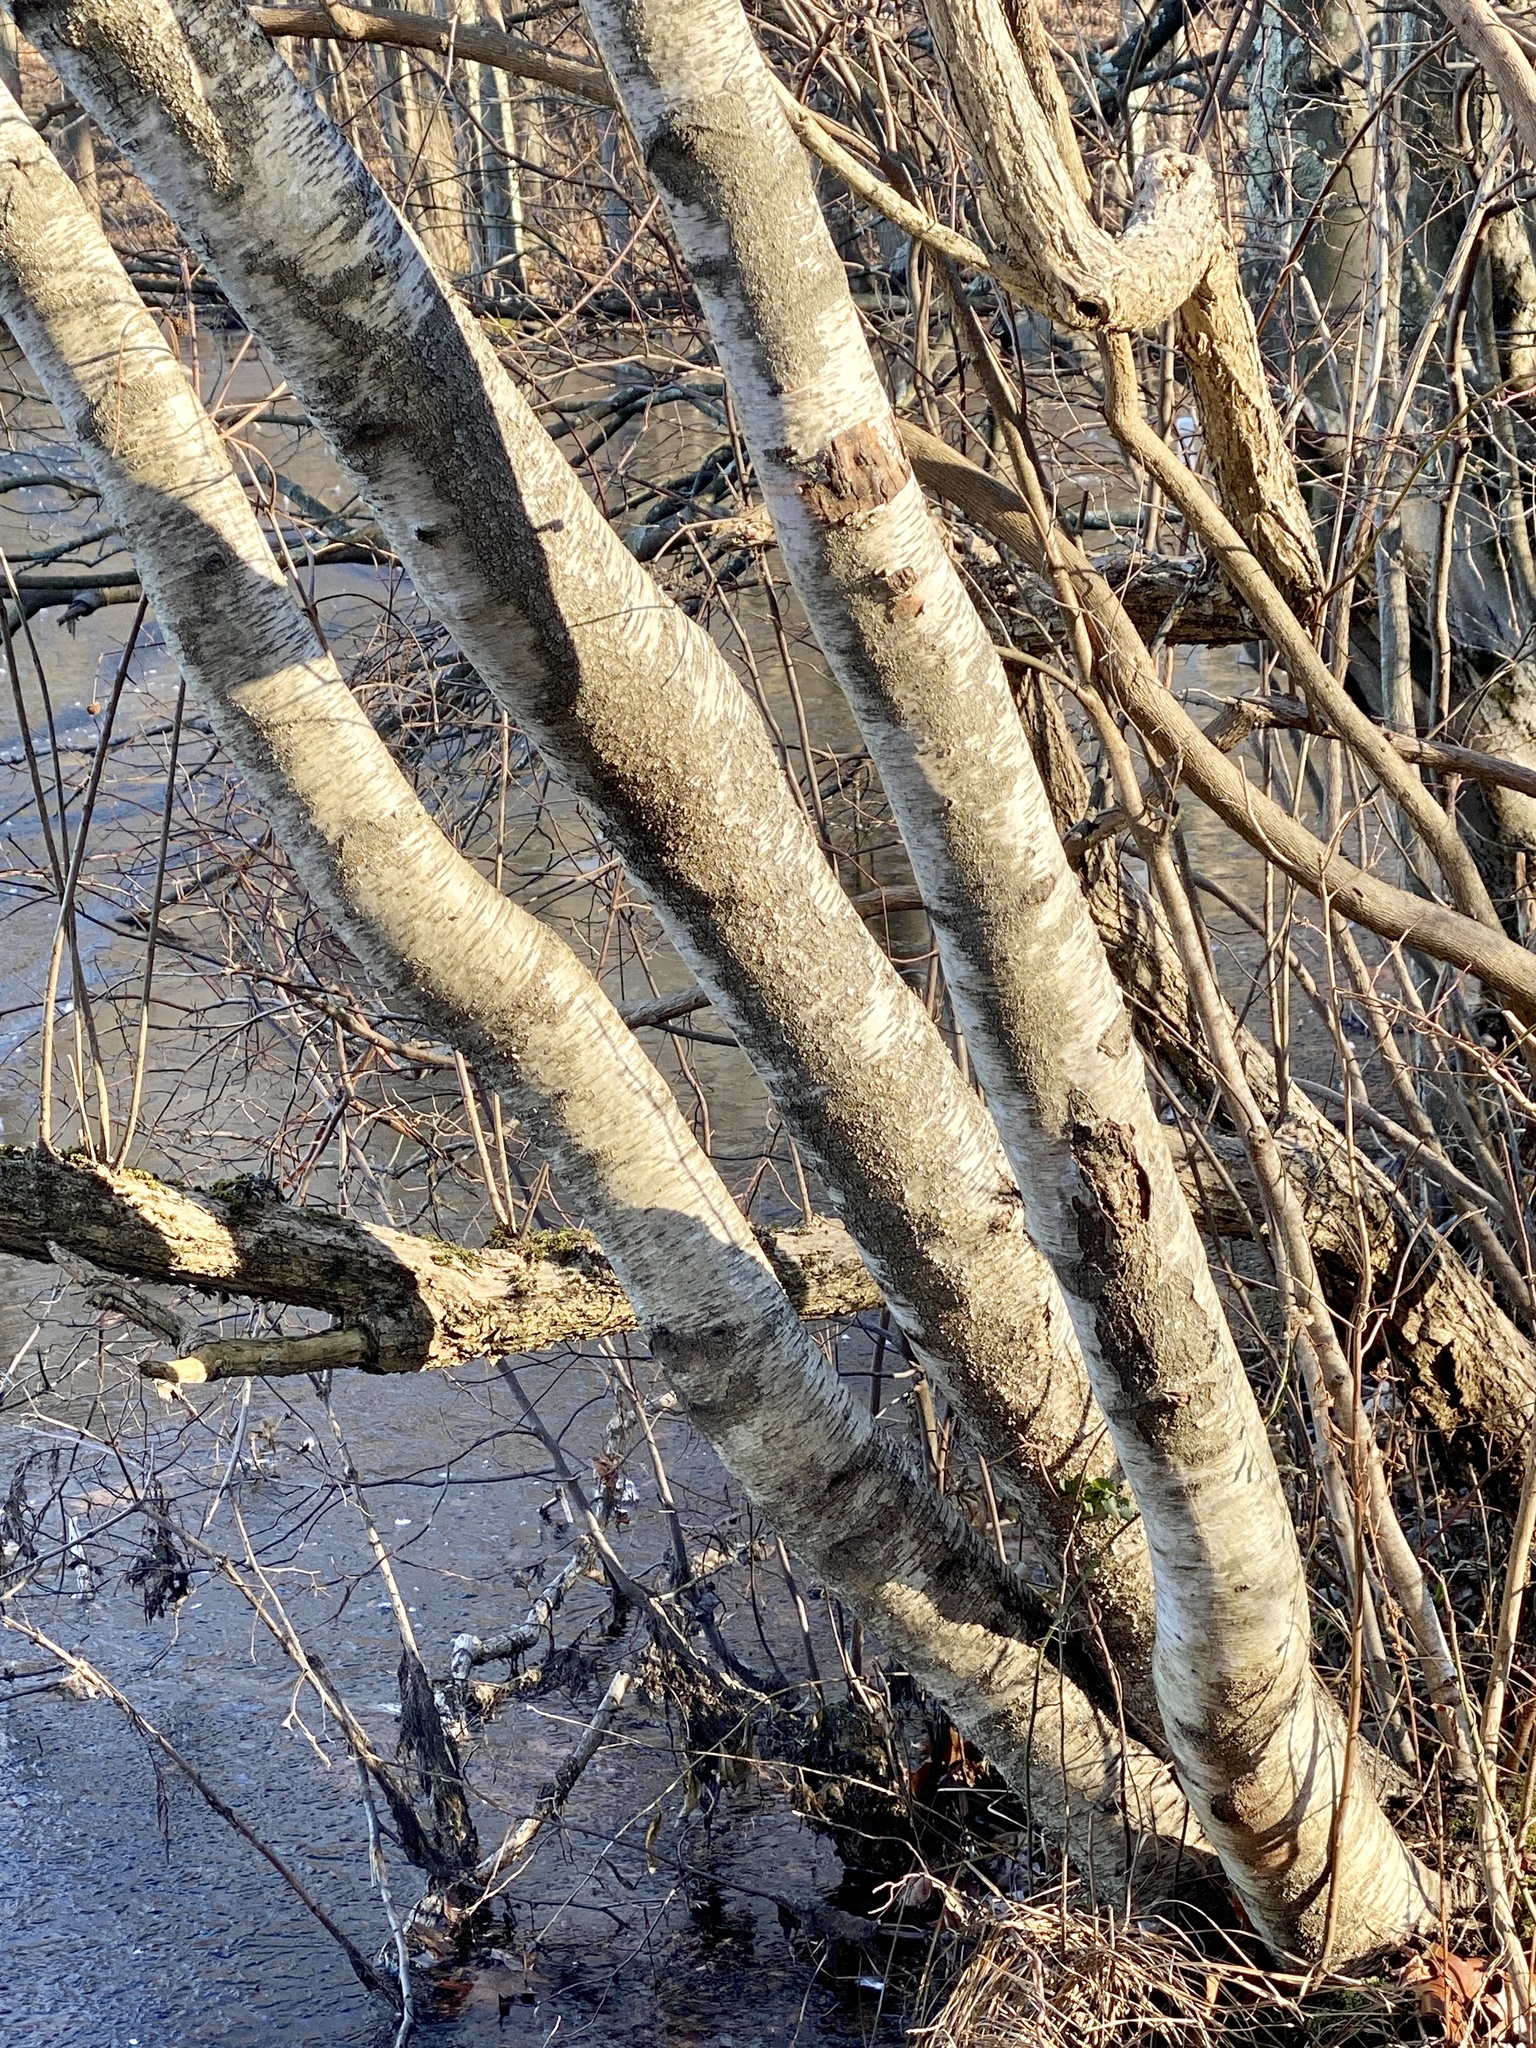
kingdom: Plantae
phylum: Tracheophyta
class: Magnoliopsida
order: Fagales
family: Betulaceae
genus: Betula
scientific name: Betula populifolia
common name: Fire birch
